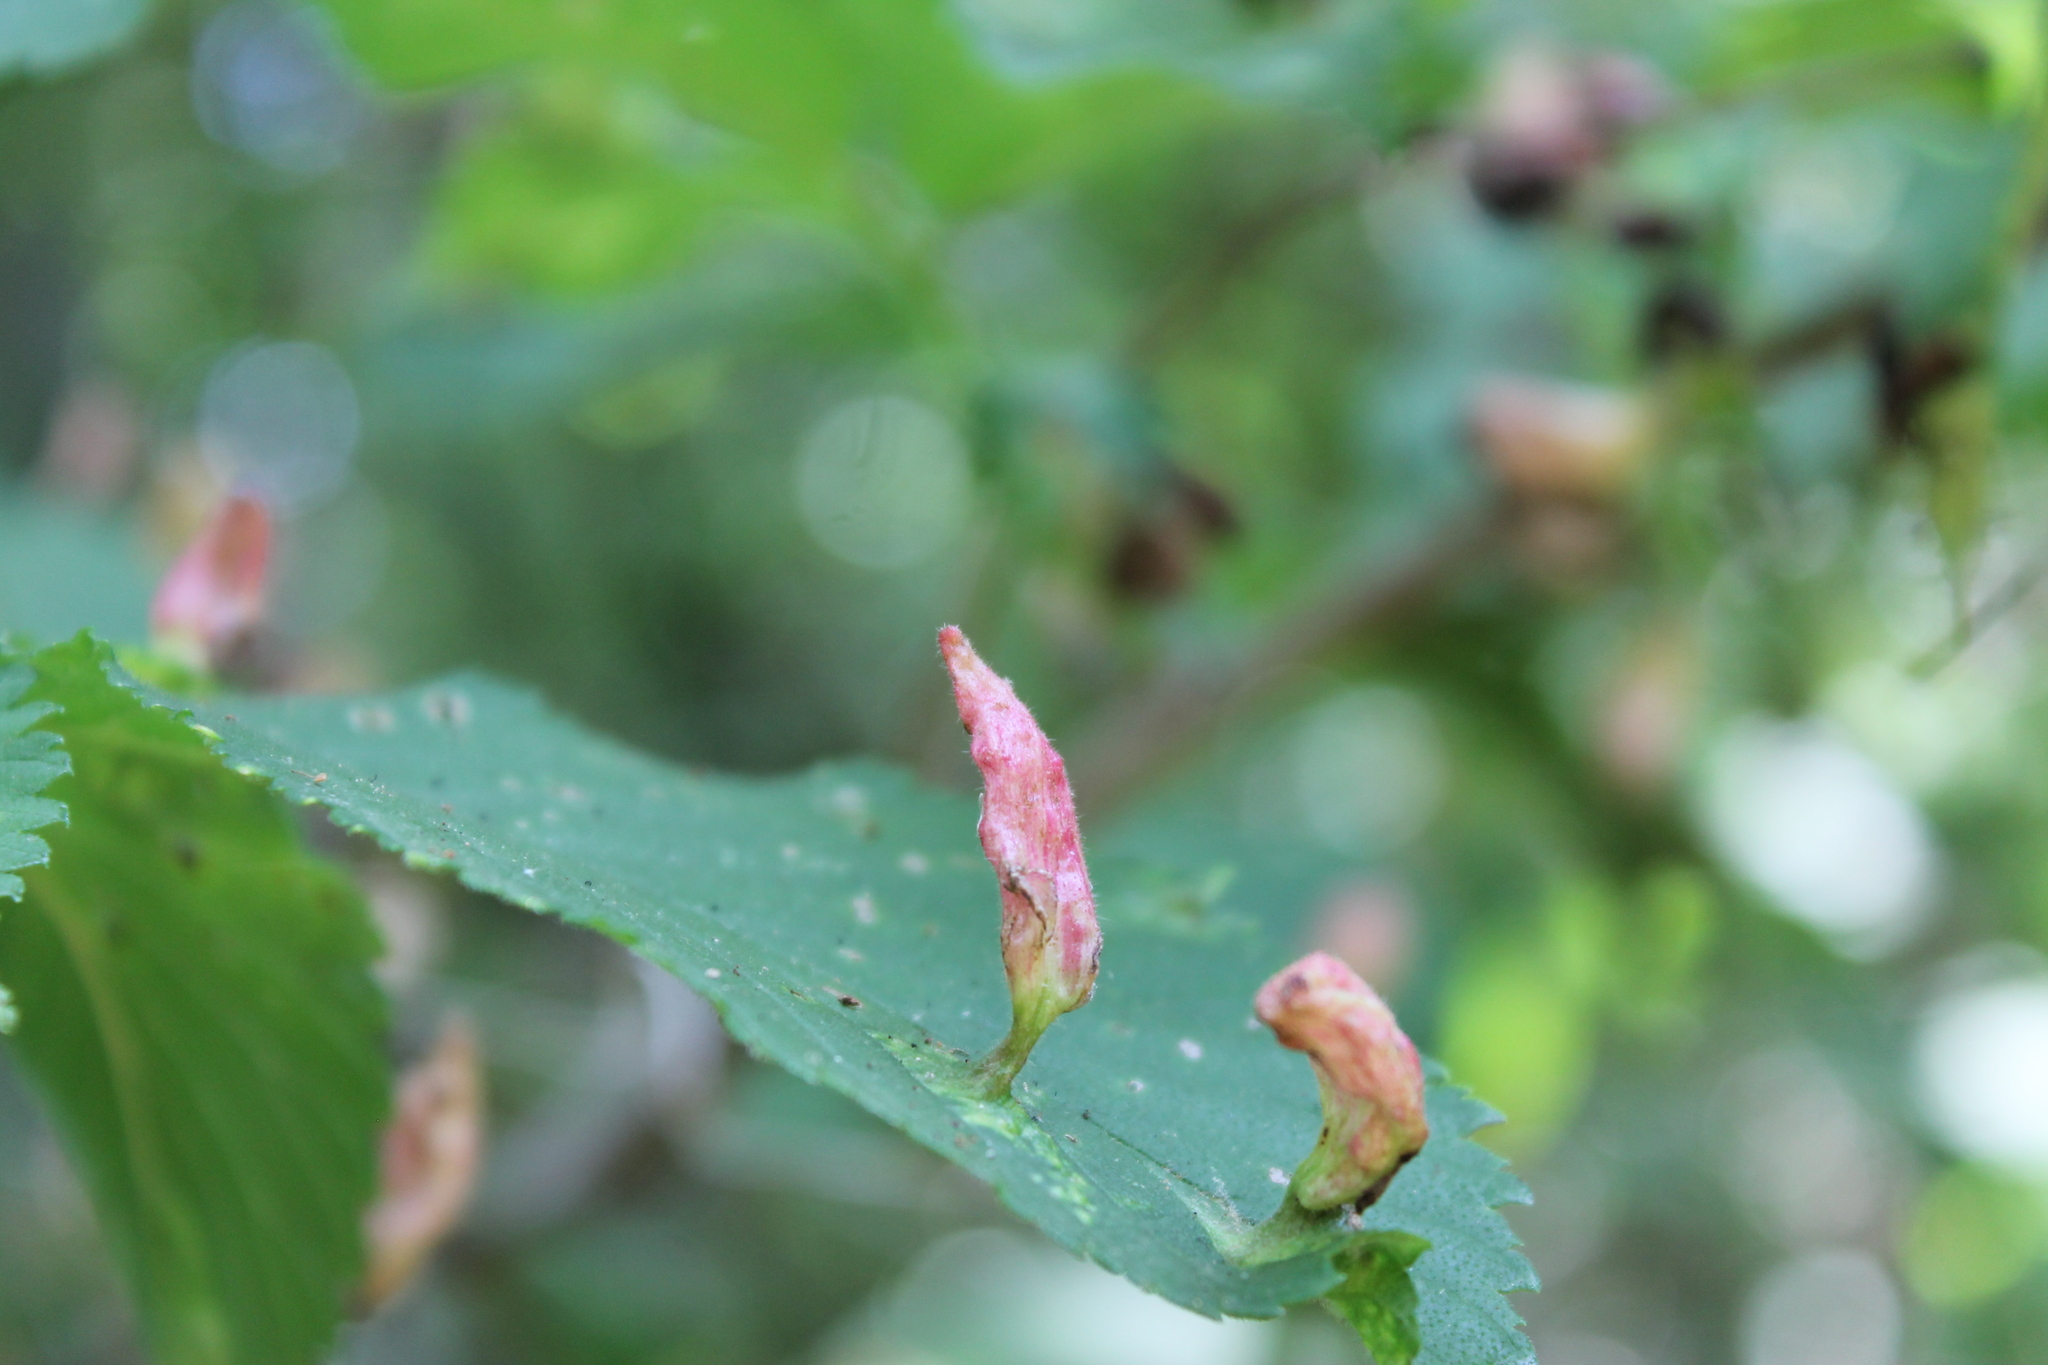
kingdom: Animalia
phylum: Arthropoda
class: Insecta
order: Hemiptera
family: Aphididae
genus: Tetraneura
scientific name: Tetraneura nigriabdominalis
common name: Aphid
